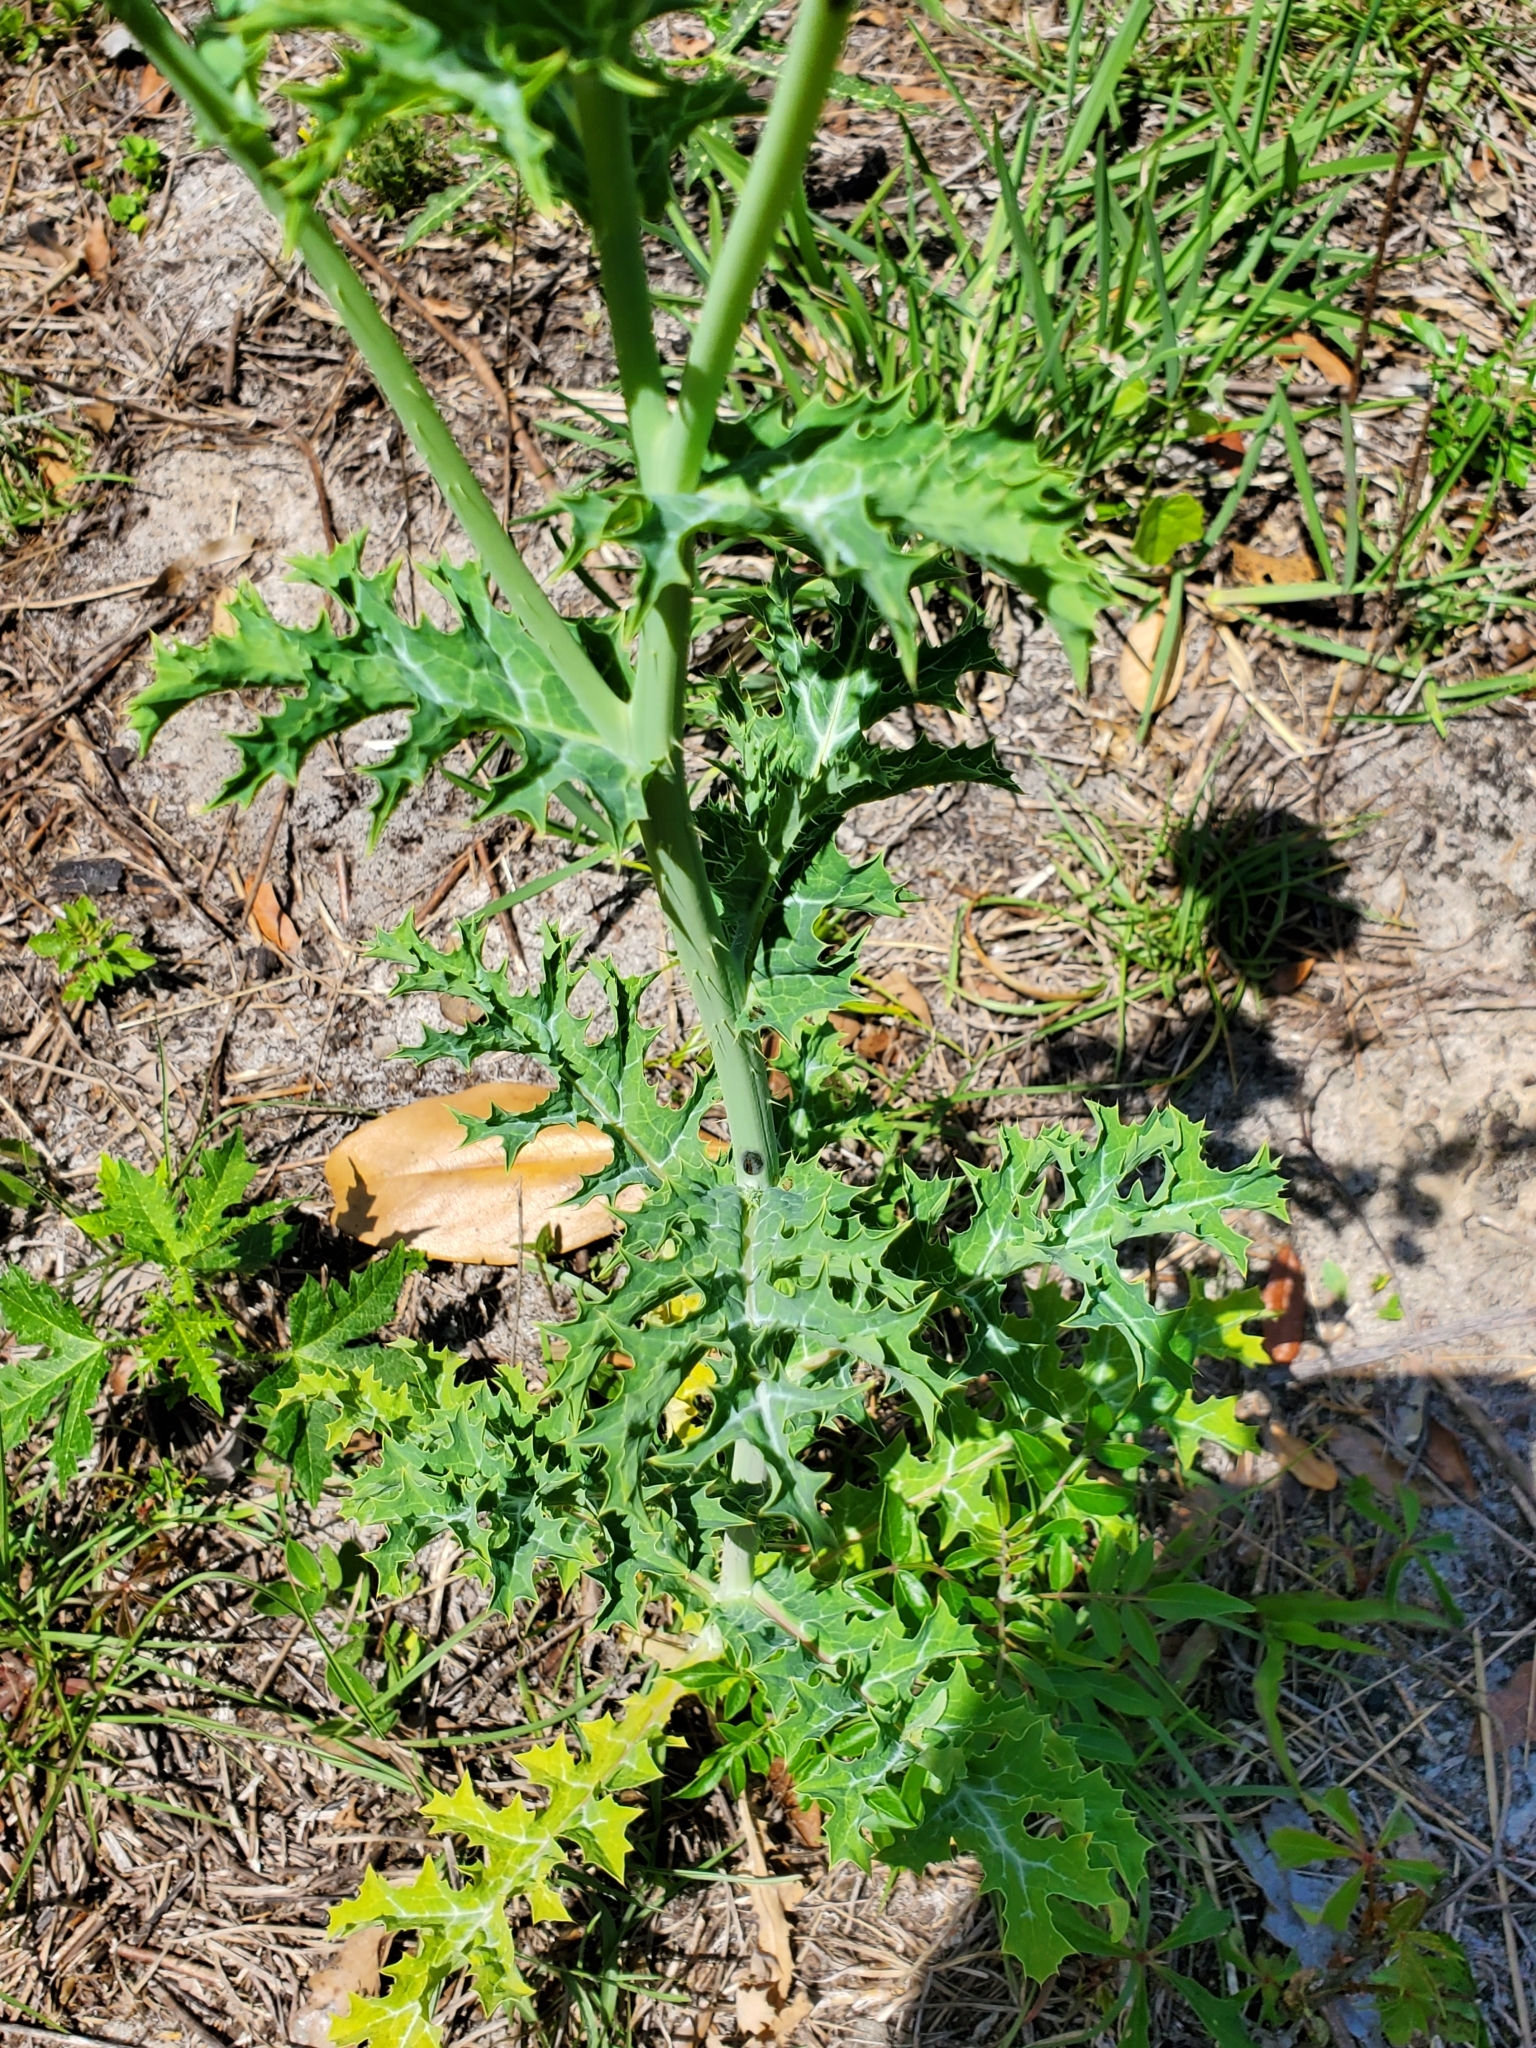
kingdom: Plantae
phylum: Tracheophyta
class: Magnoliopsida
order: Ranunculales
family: Papaveraceae
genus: Argemone
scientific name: Argemone albiflora
